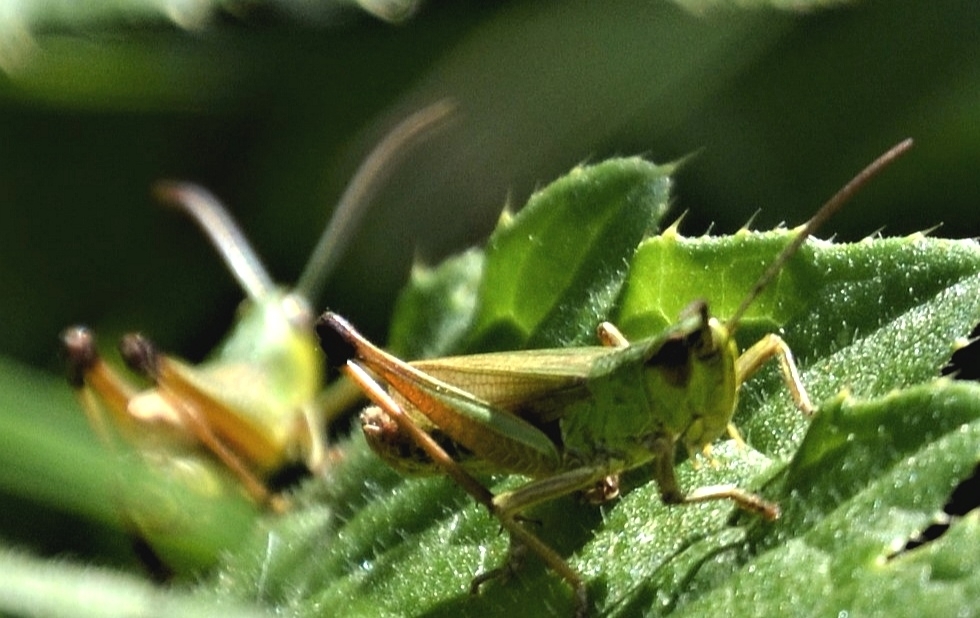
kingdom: Animalia
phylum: Arthropoda
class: Insecta
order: Orthoptera
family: Acrididae
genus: Pseudochorthippus
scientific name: Pseudochorthippus parallelus
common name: Meadow grasshopper
